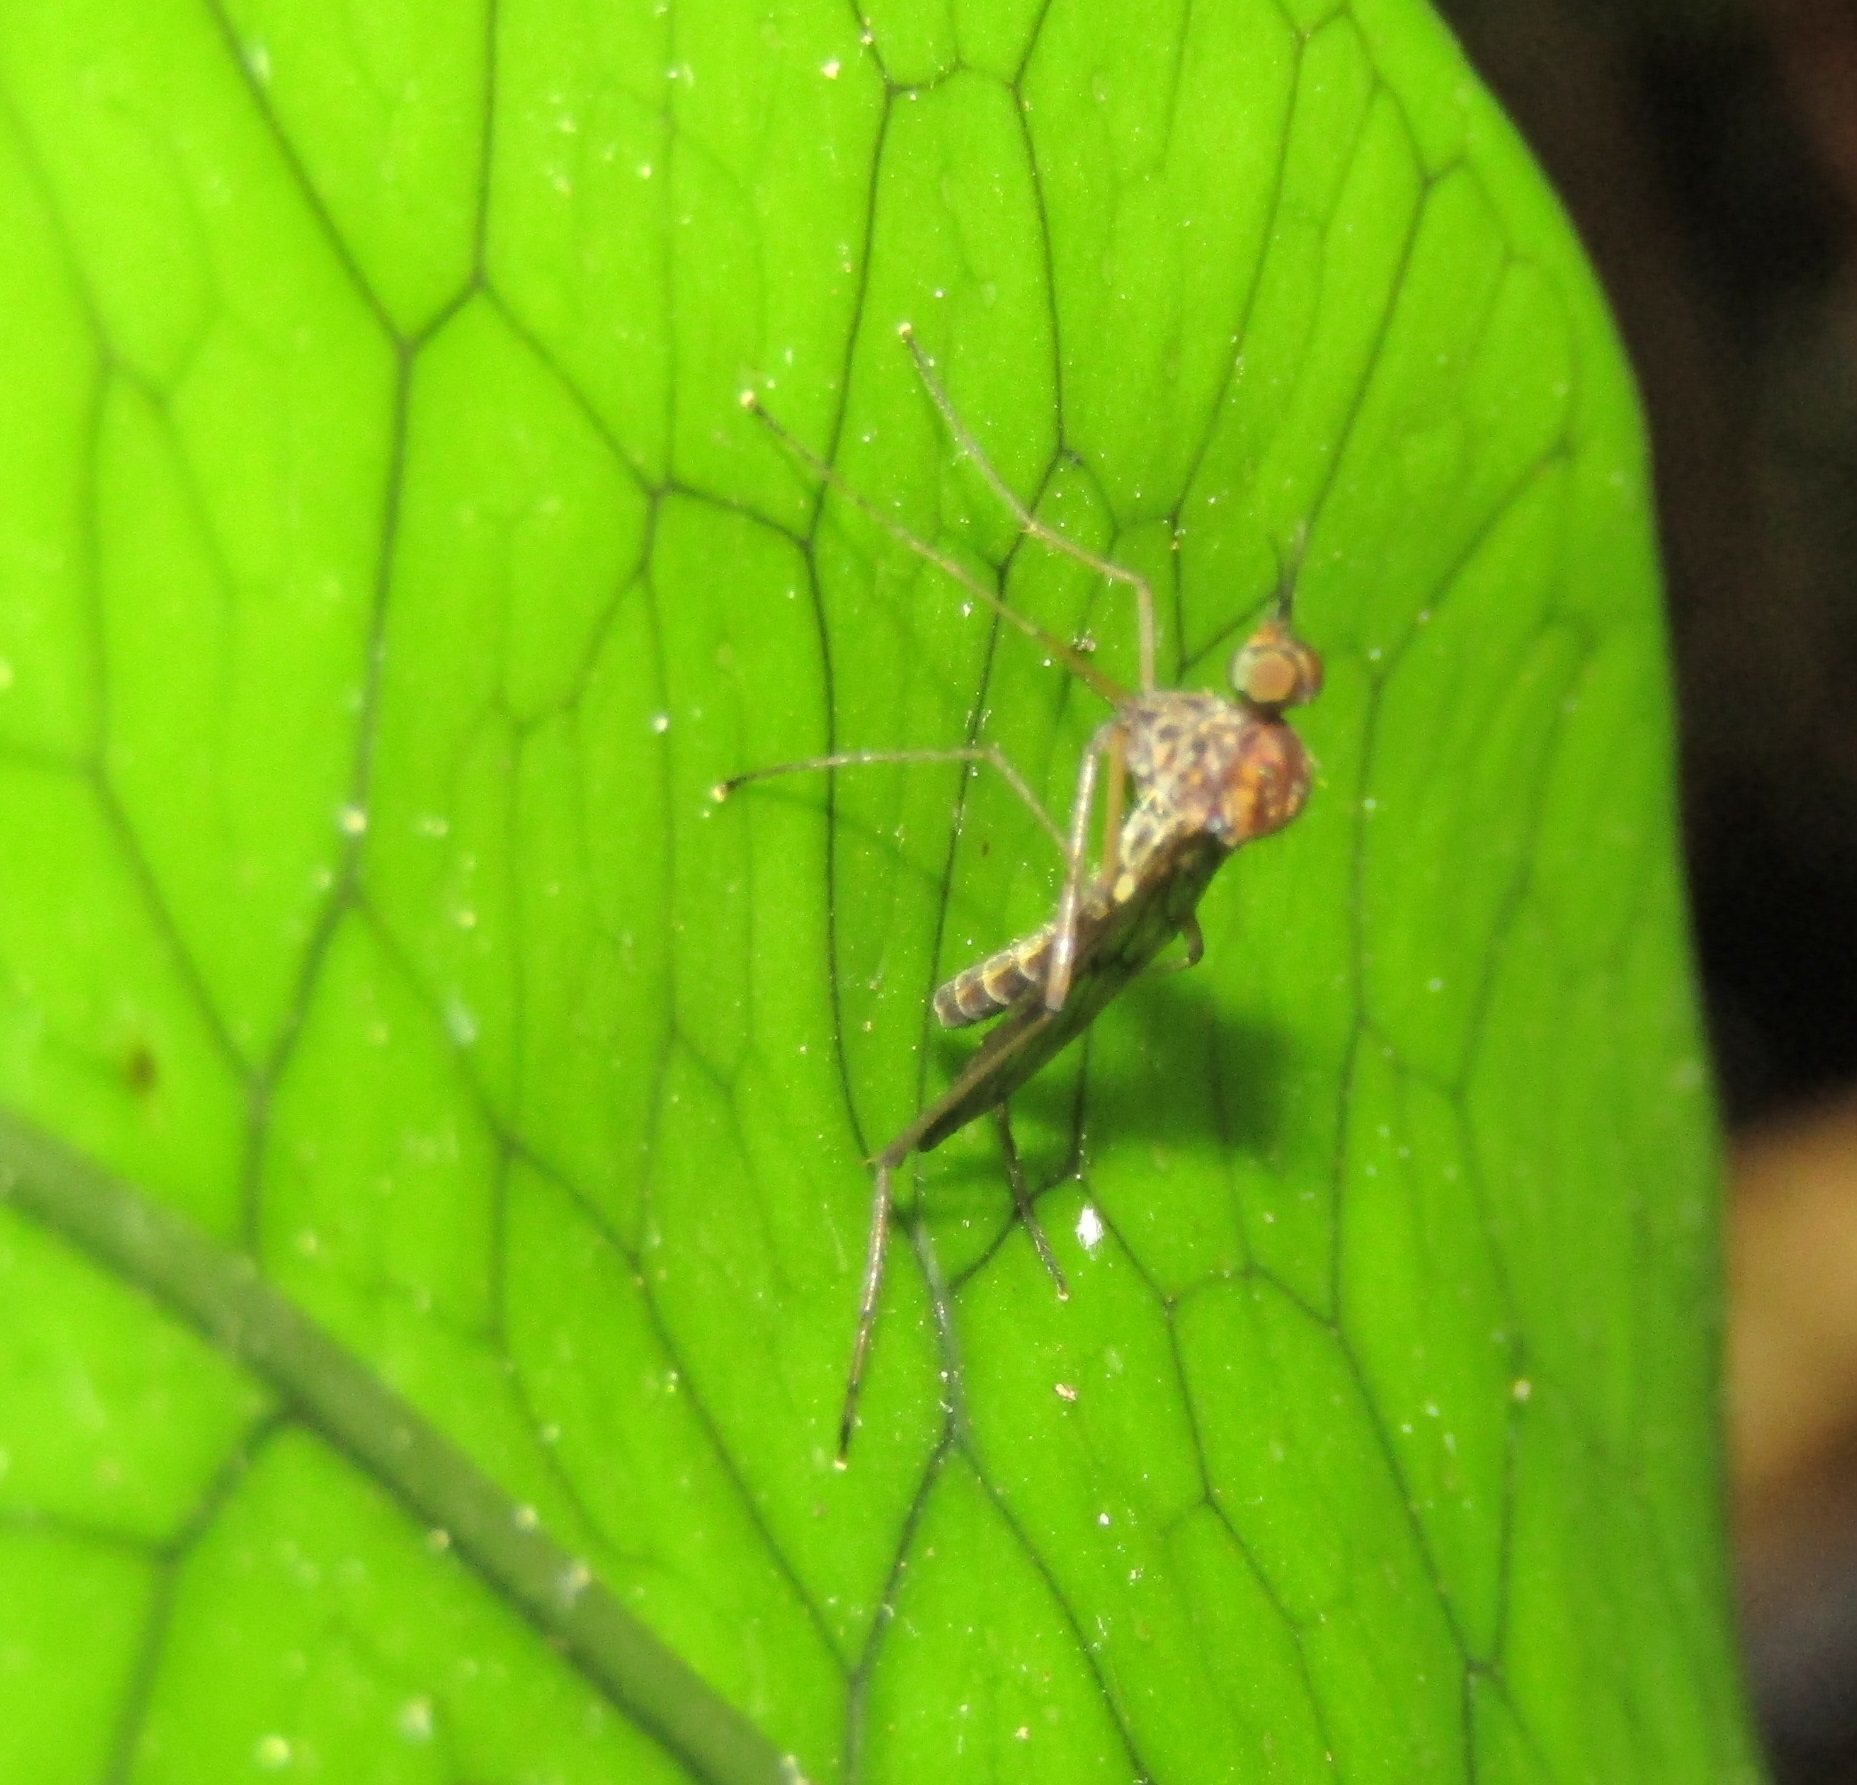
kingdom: Animalia
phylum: Arthropoda
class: Insecta
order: Diptera
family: Anisopodidae
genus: Sylvicola
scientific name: Sylvicola undulatus
